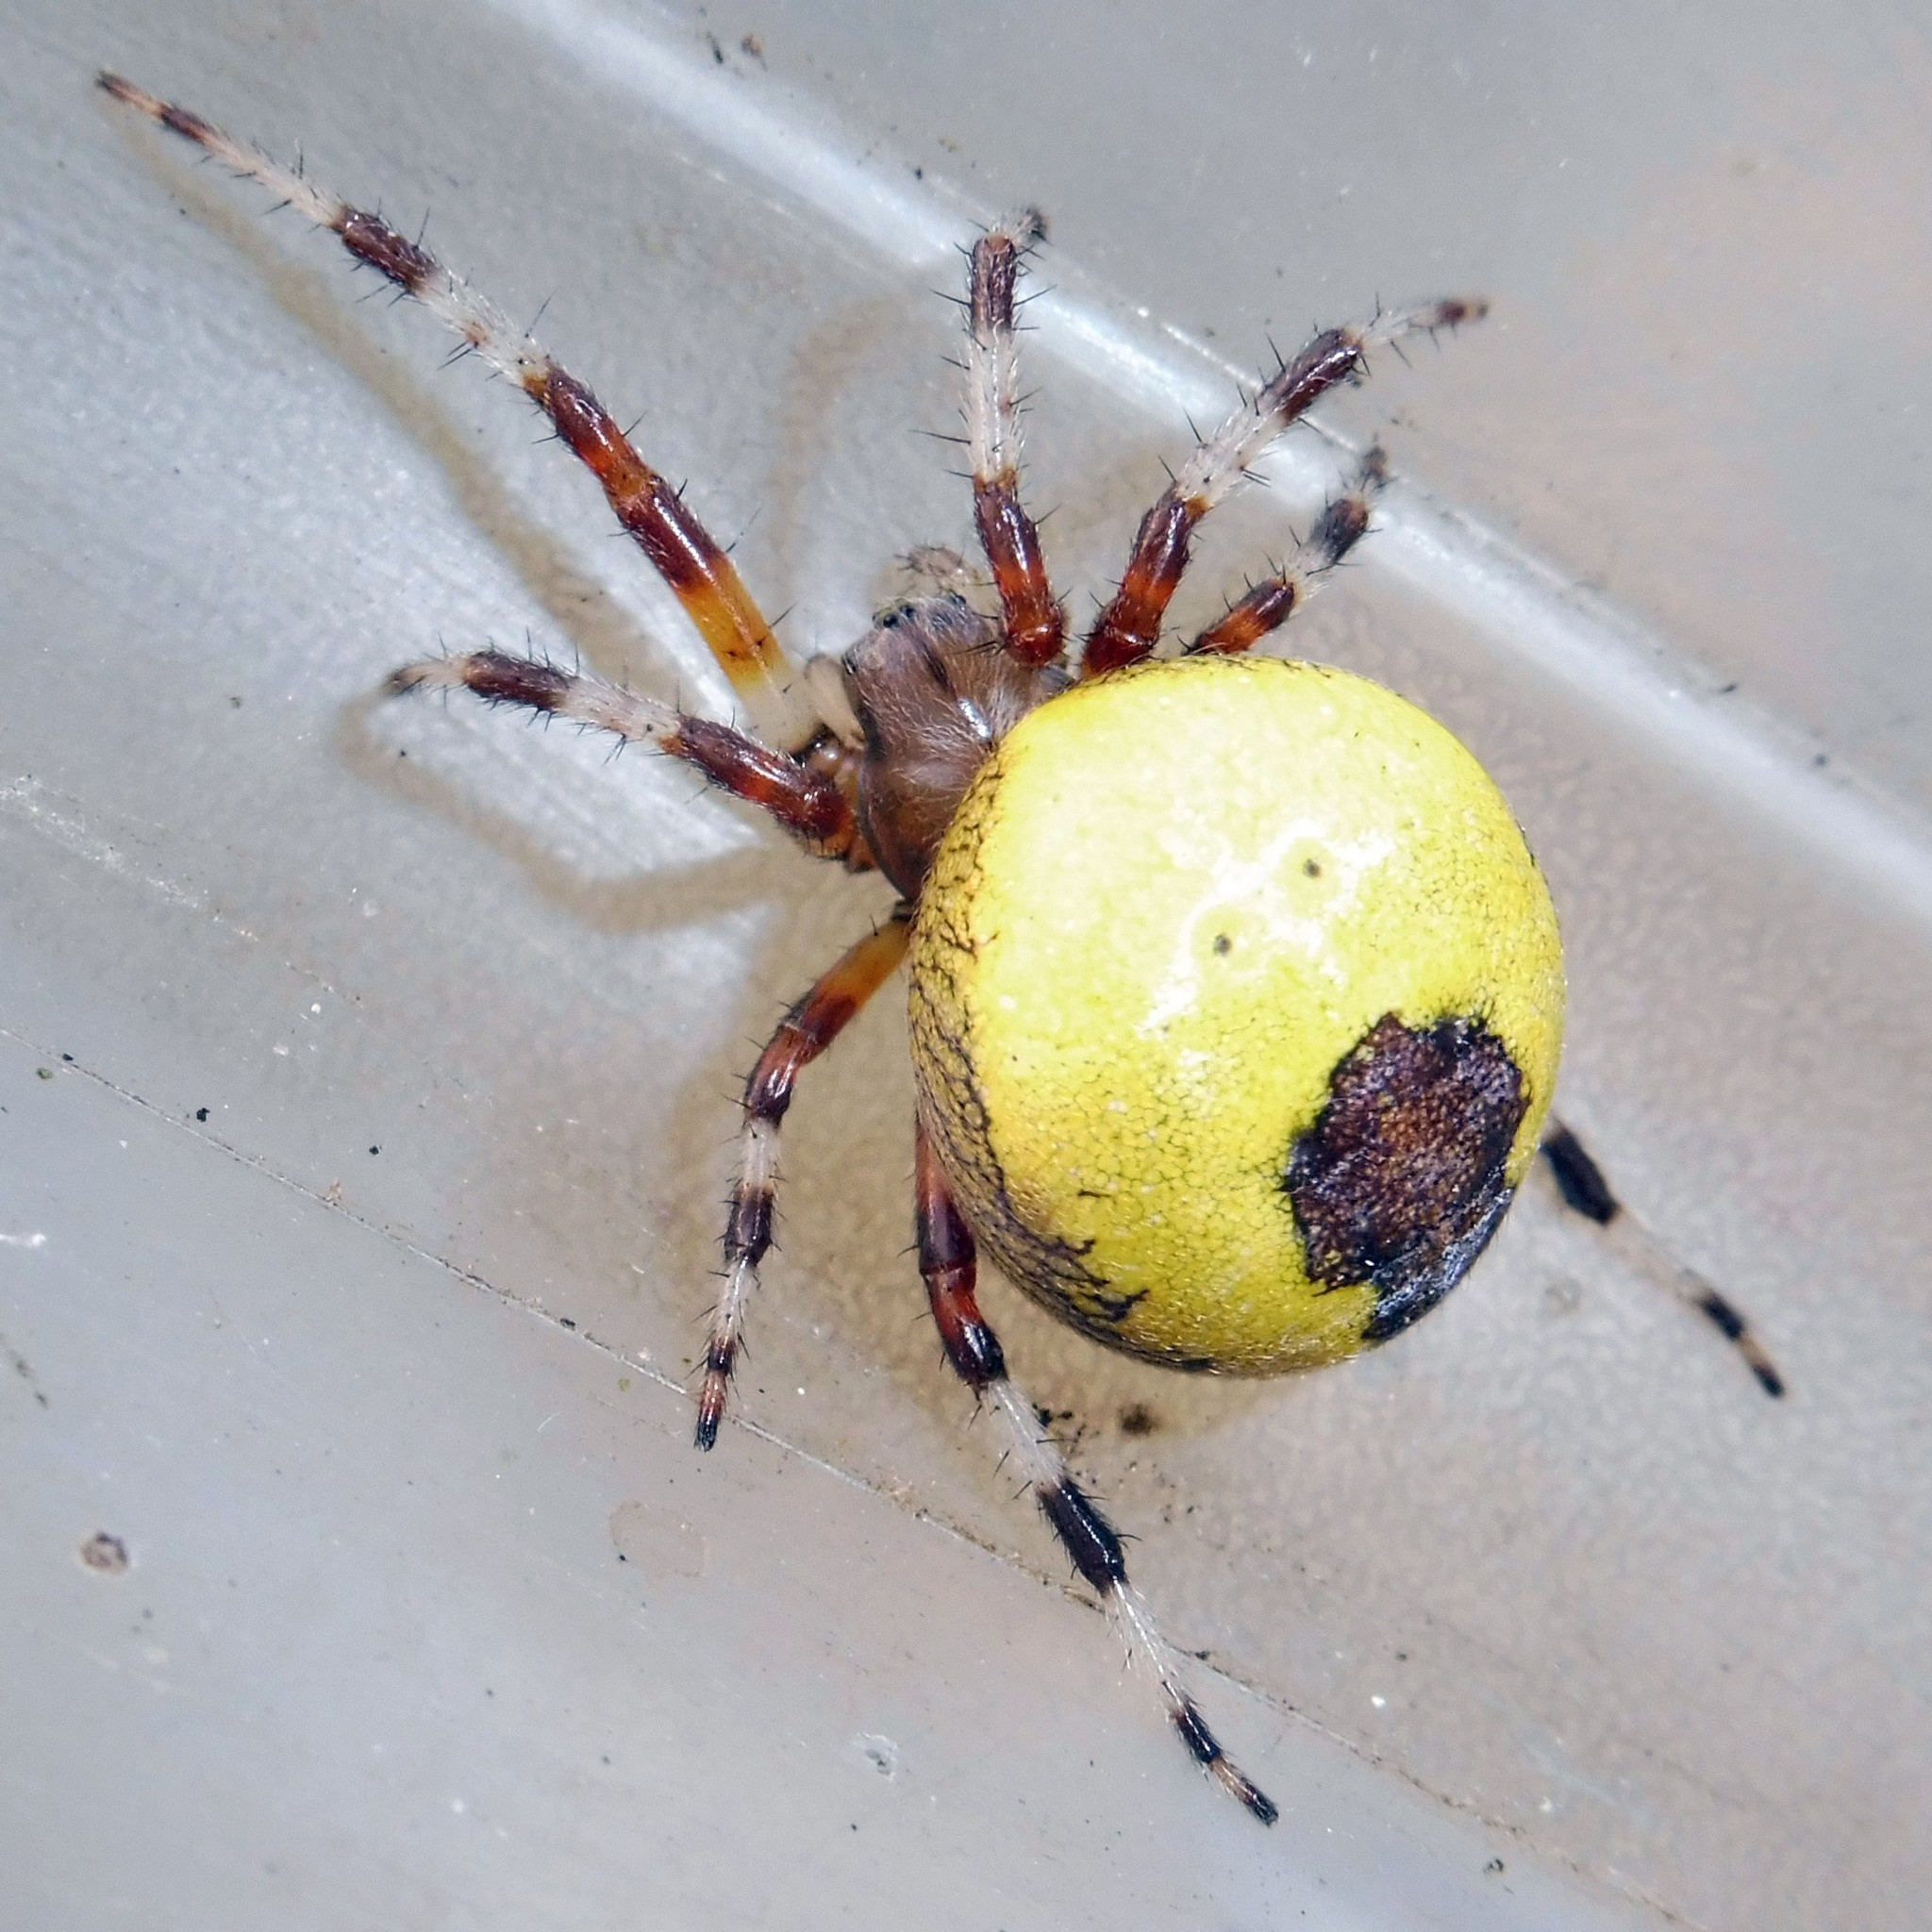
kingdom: Animalia
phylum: Arthropoda
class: Arachnida
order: Araneae
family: Araneidae
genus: Araneus
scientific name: Araneus marmoreus
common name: Marbled orbweaver
